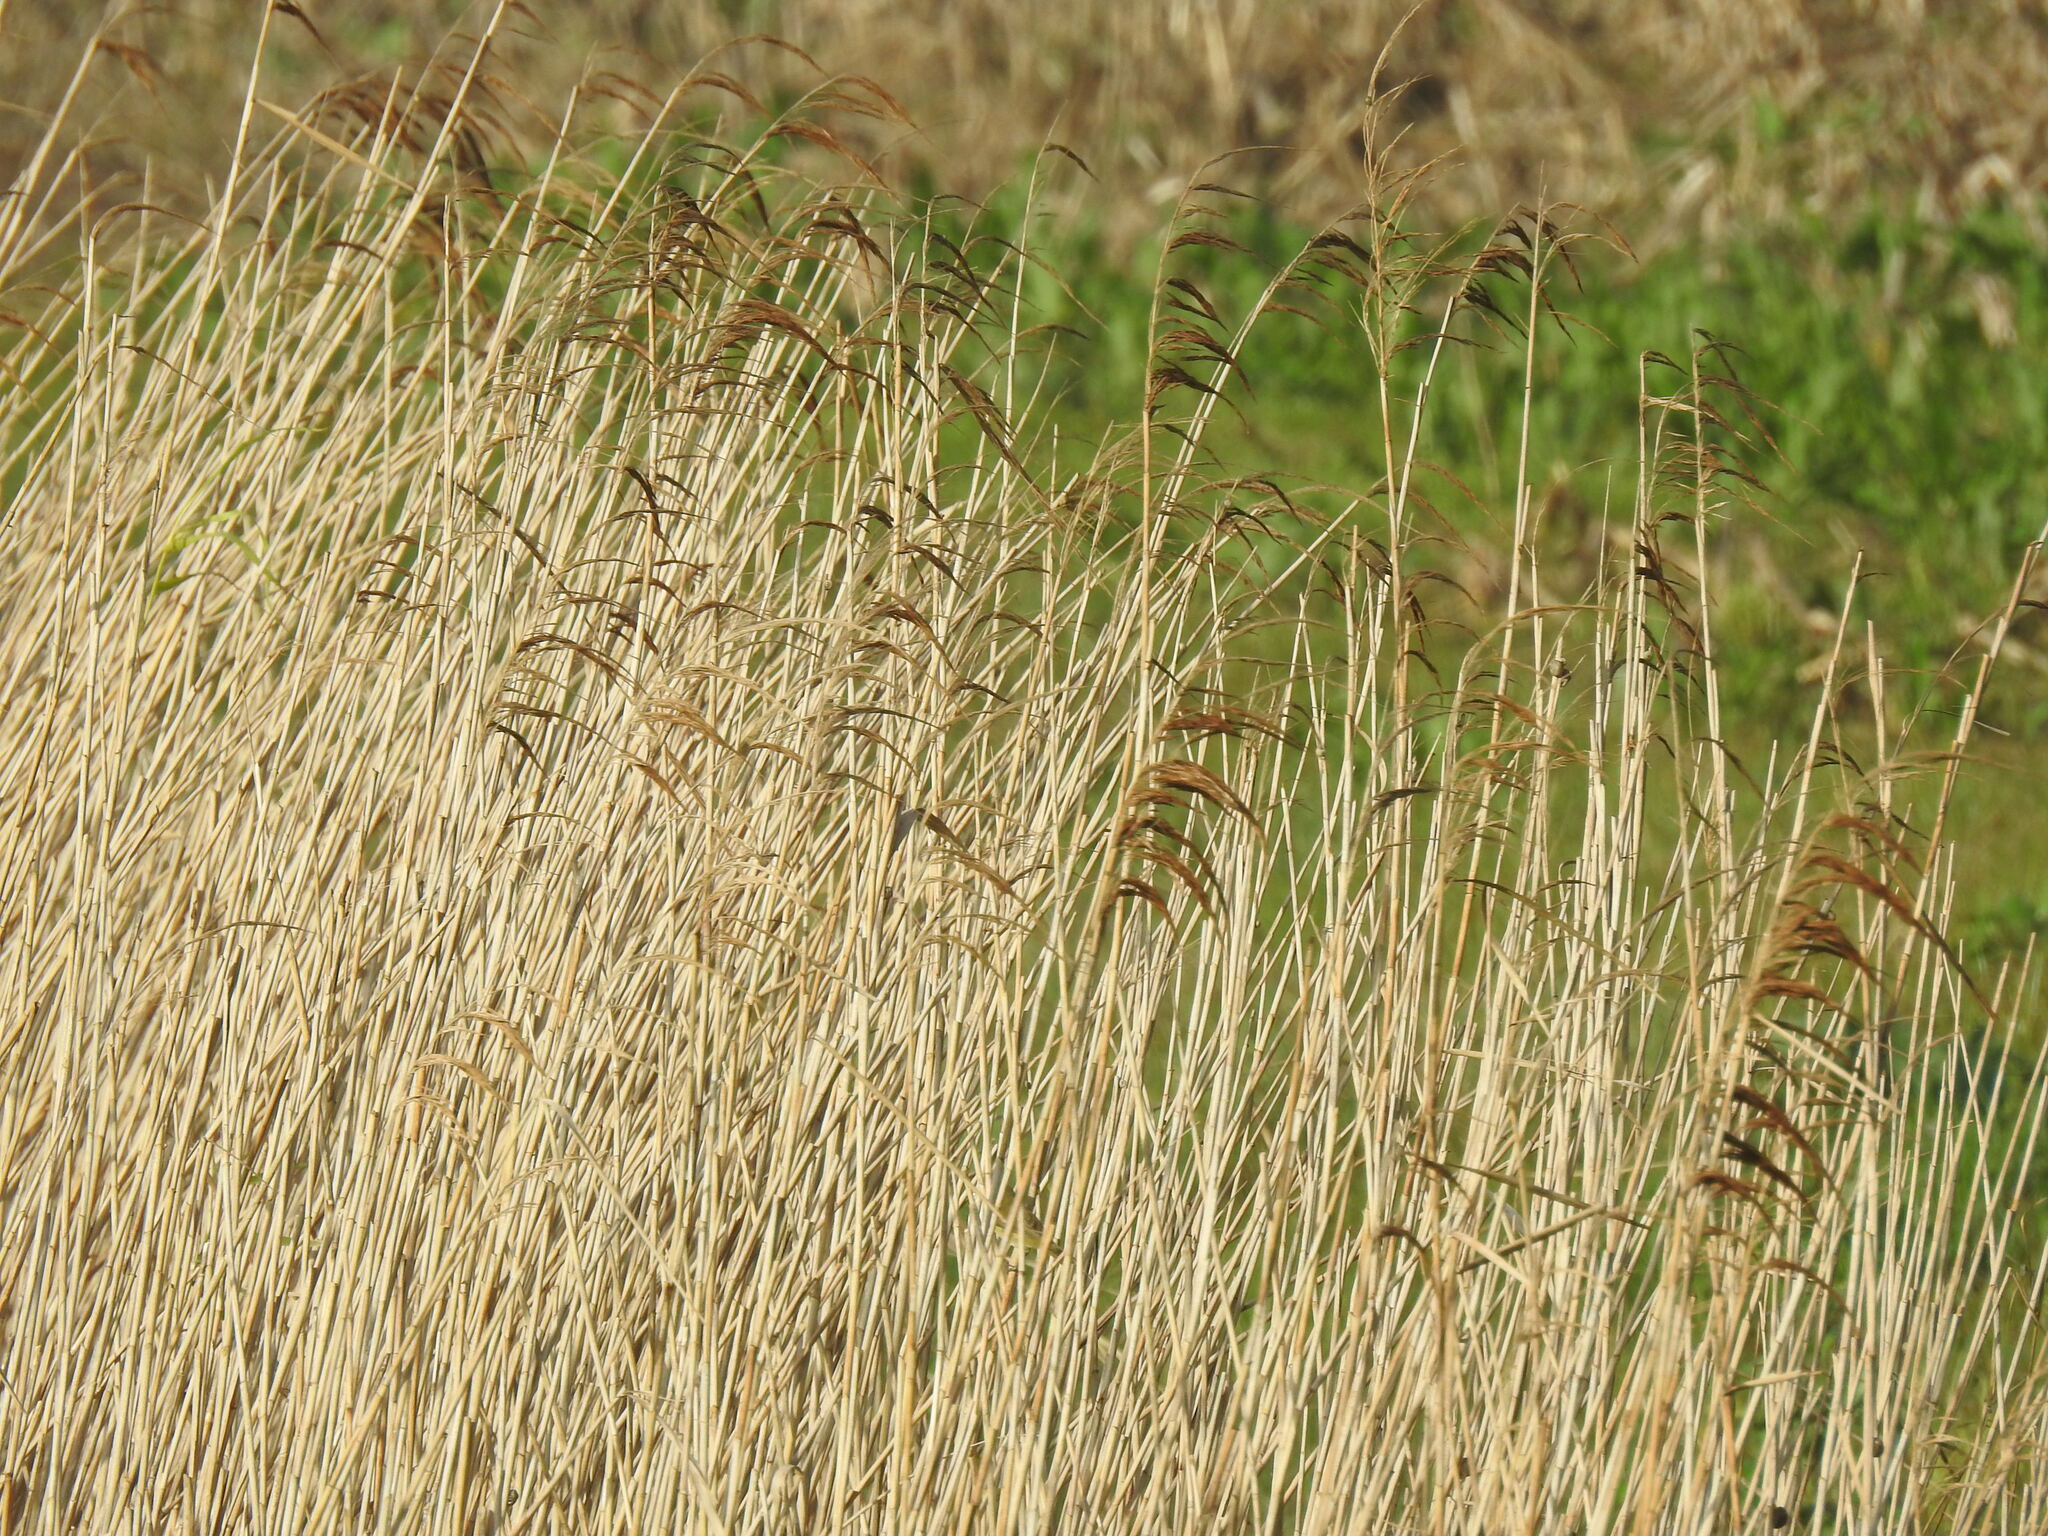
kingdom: Plantae
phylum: Tracheophyta
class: Liliopsida
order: Poales
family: Poaceae
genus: Phragmites
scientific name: Phragmites australis
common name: Common reed
